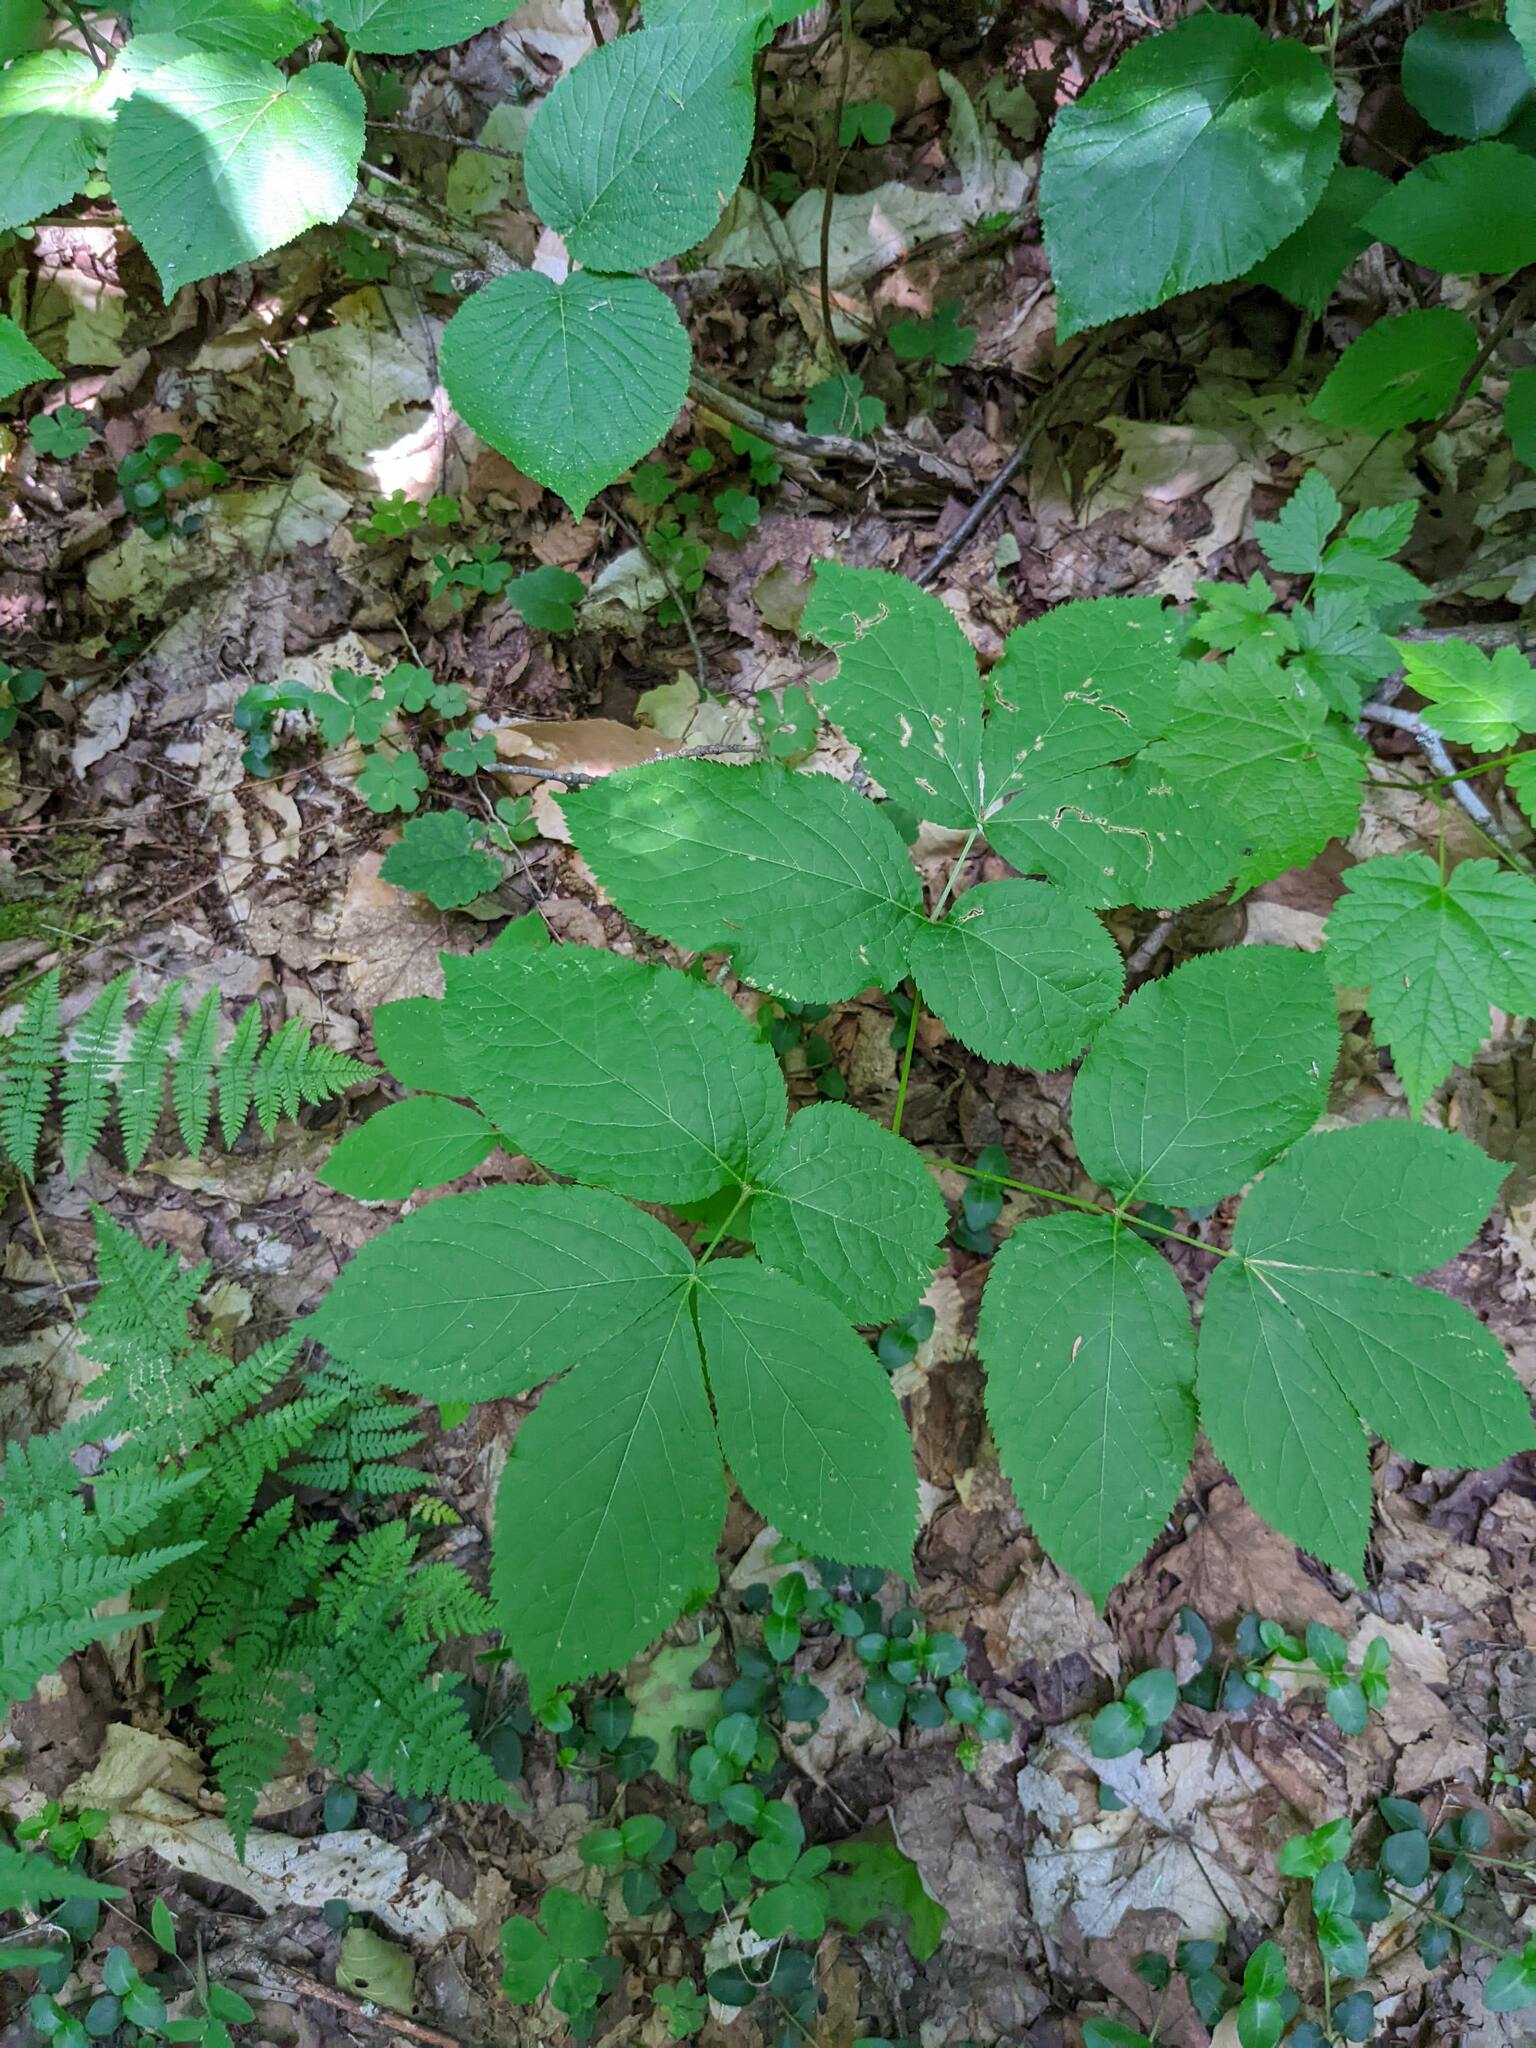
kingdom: Plantae
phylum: Tracheophyta
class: Magnoliopsida
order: Apiales
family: Araliaceae
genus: Aralia
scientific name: Aralia nudicaulis
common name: Wild sarsaparilla
